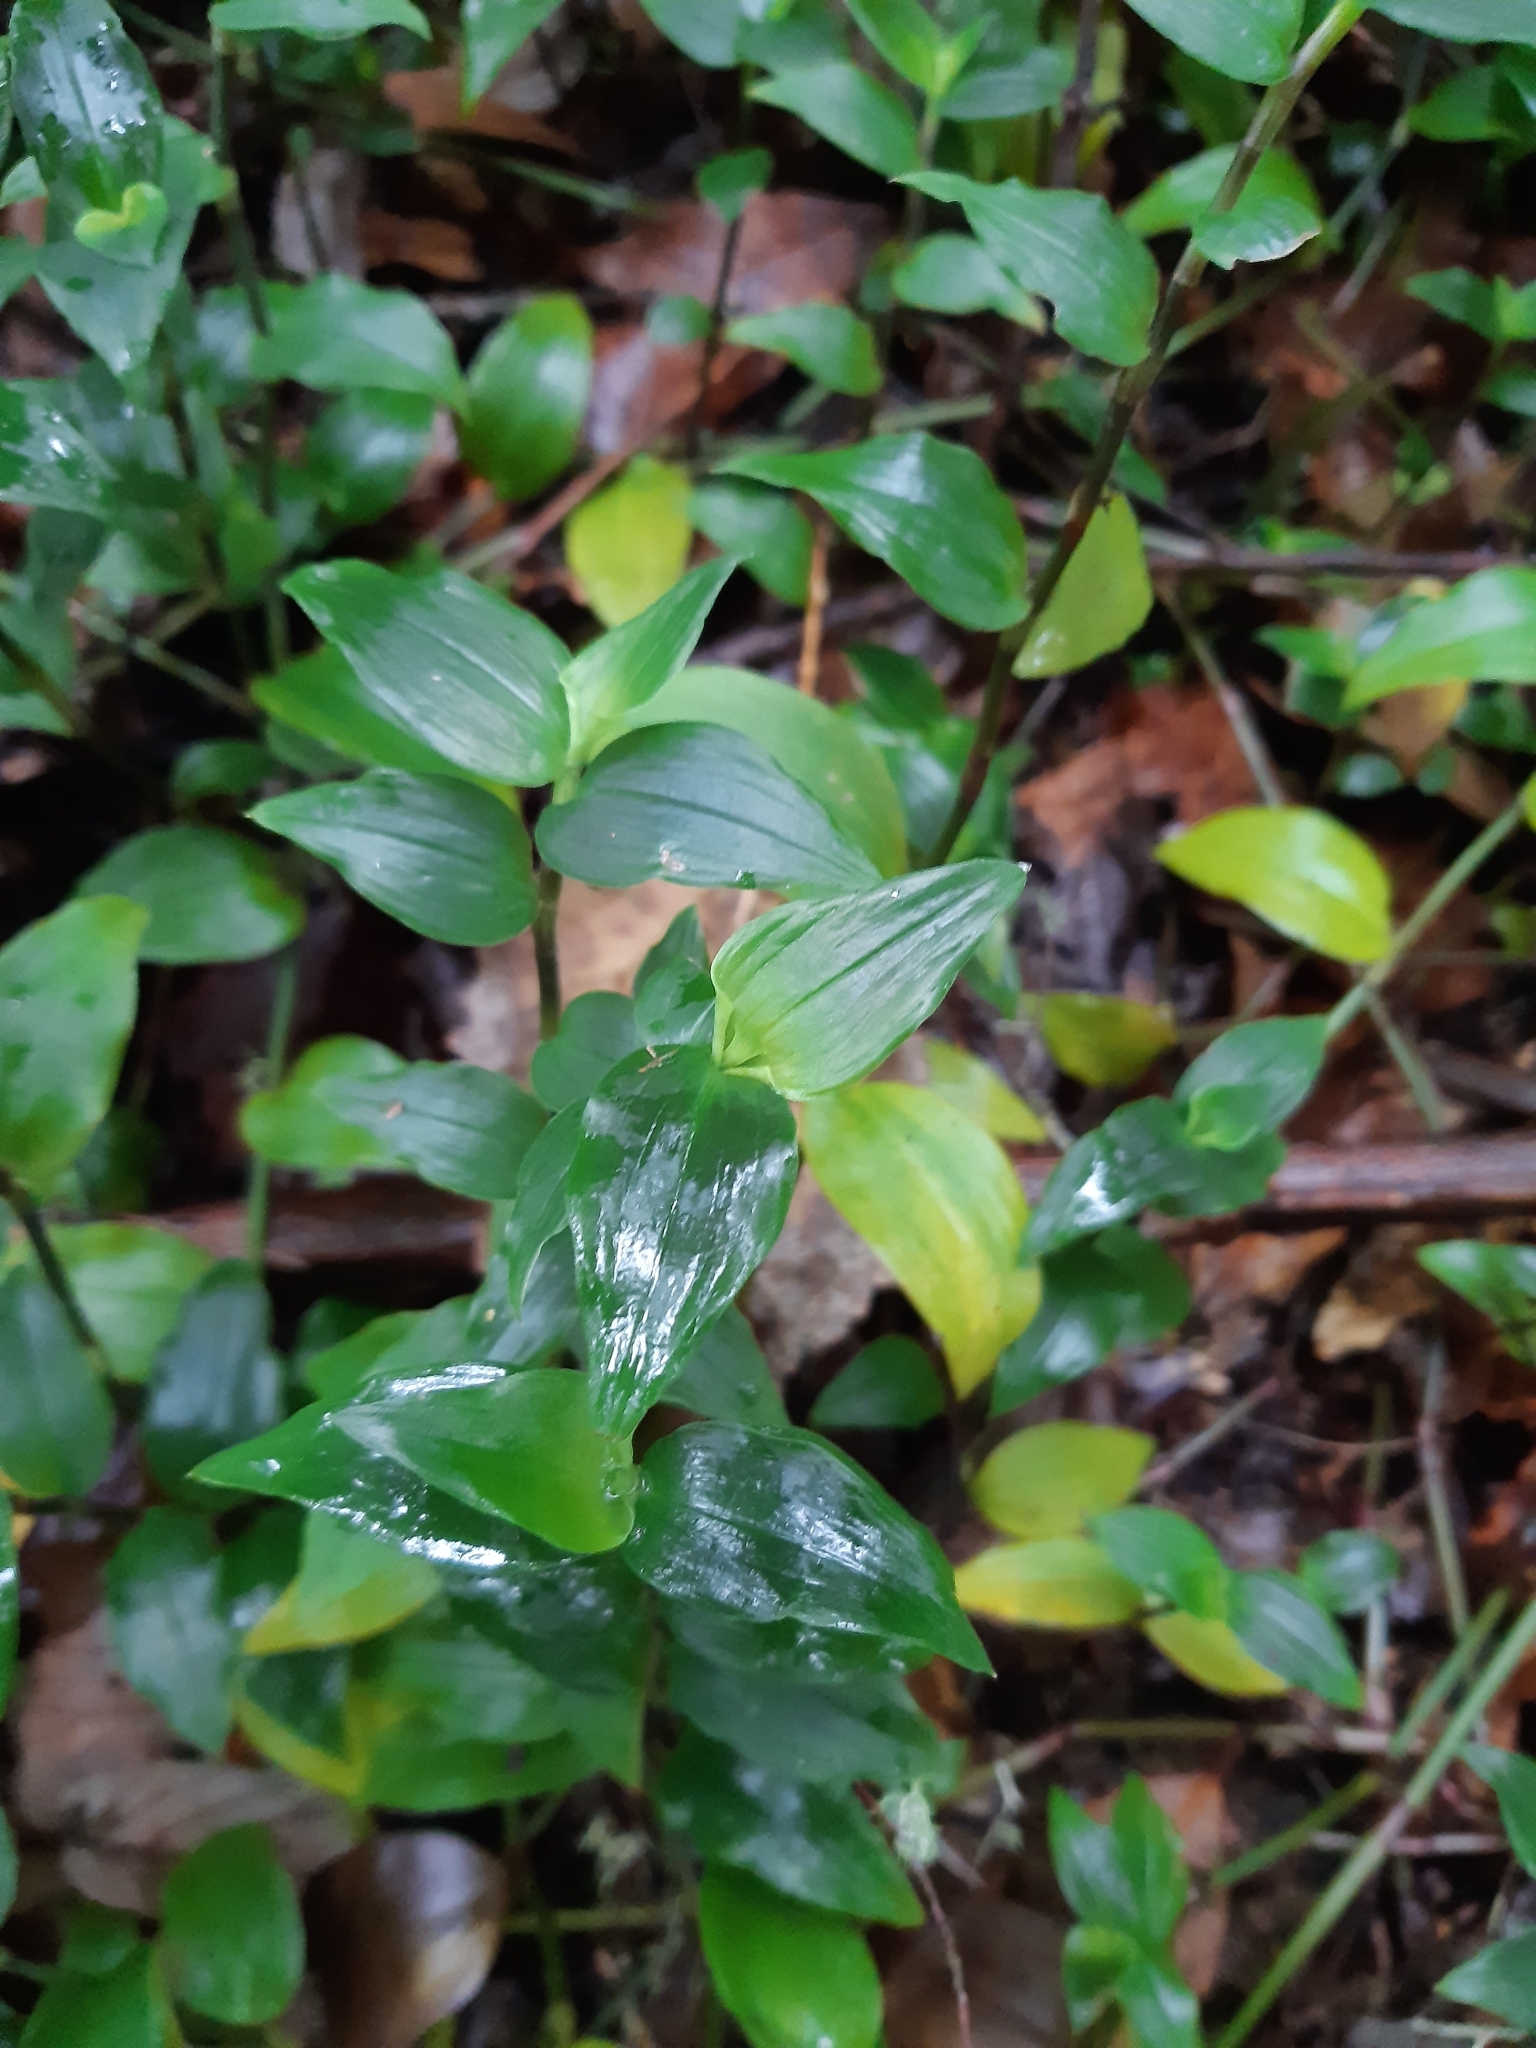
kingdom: Plantae
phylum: Tracheophyta
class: Liliopsida
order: Commelinales
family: Commelinaceae
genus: Tradescantia
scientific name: Tradescantia fluminensis
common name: Wandering-jew
